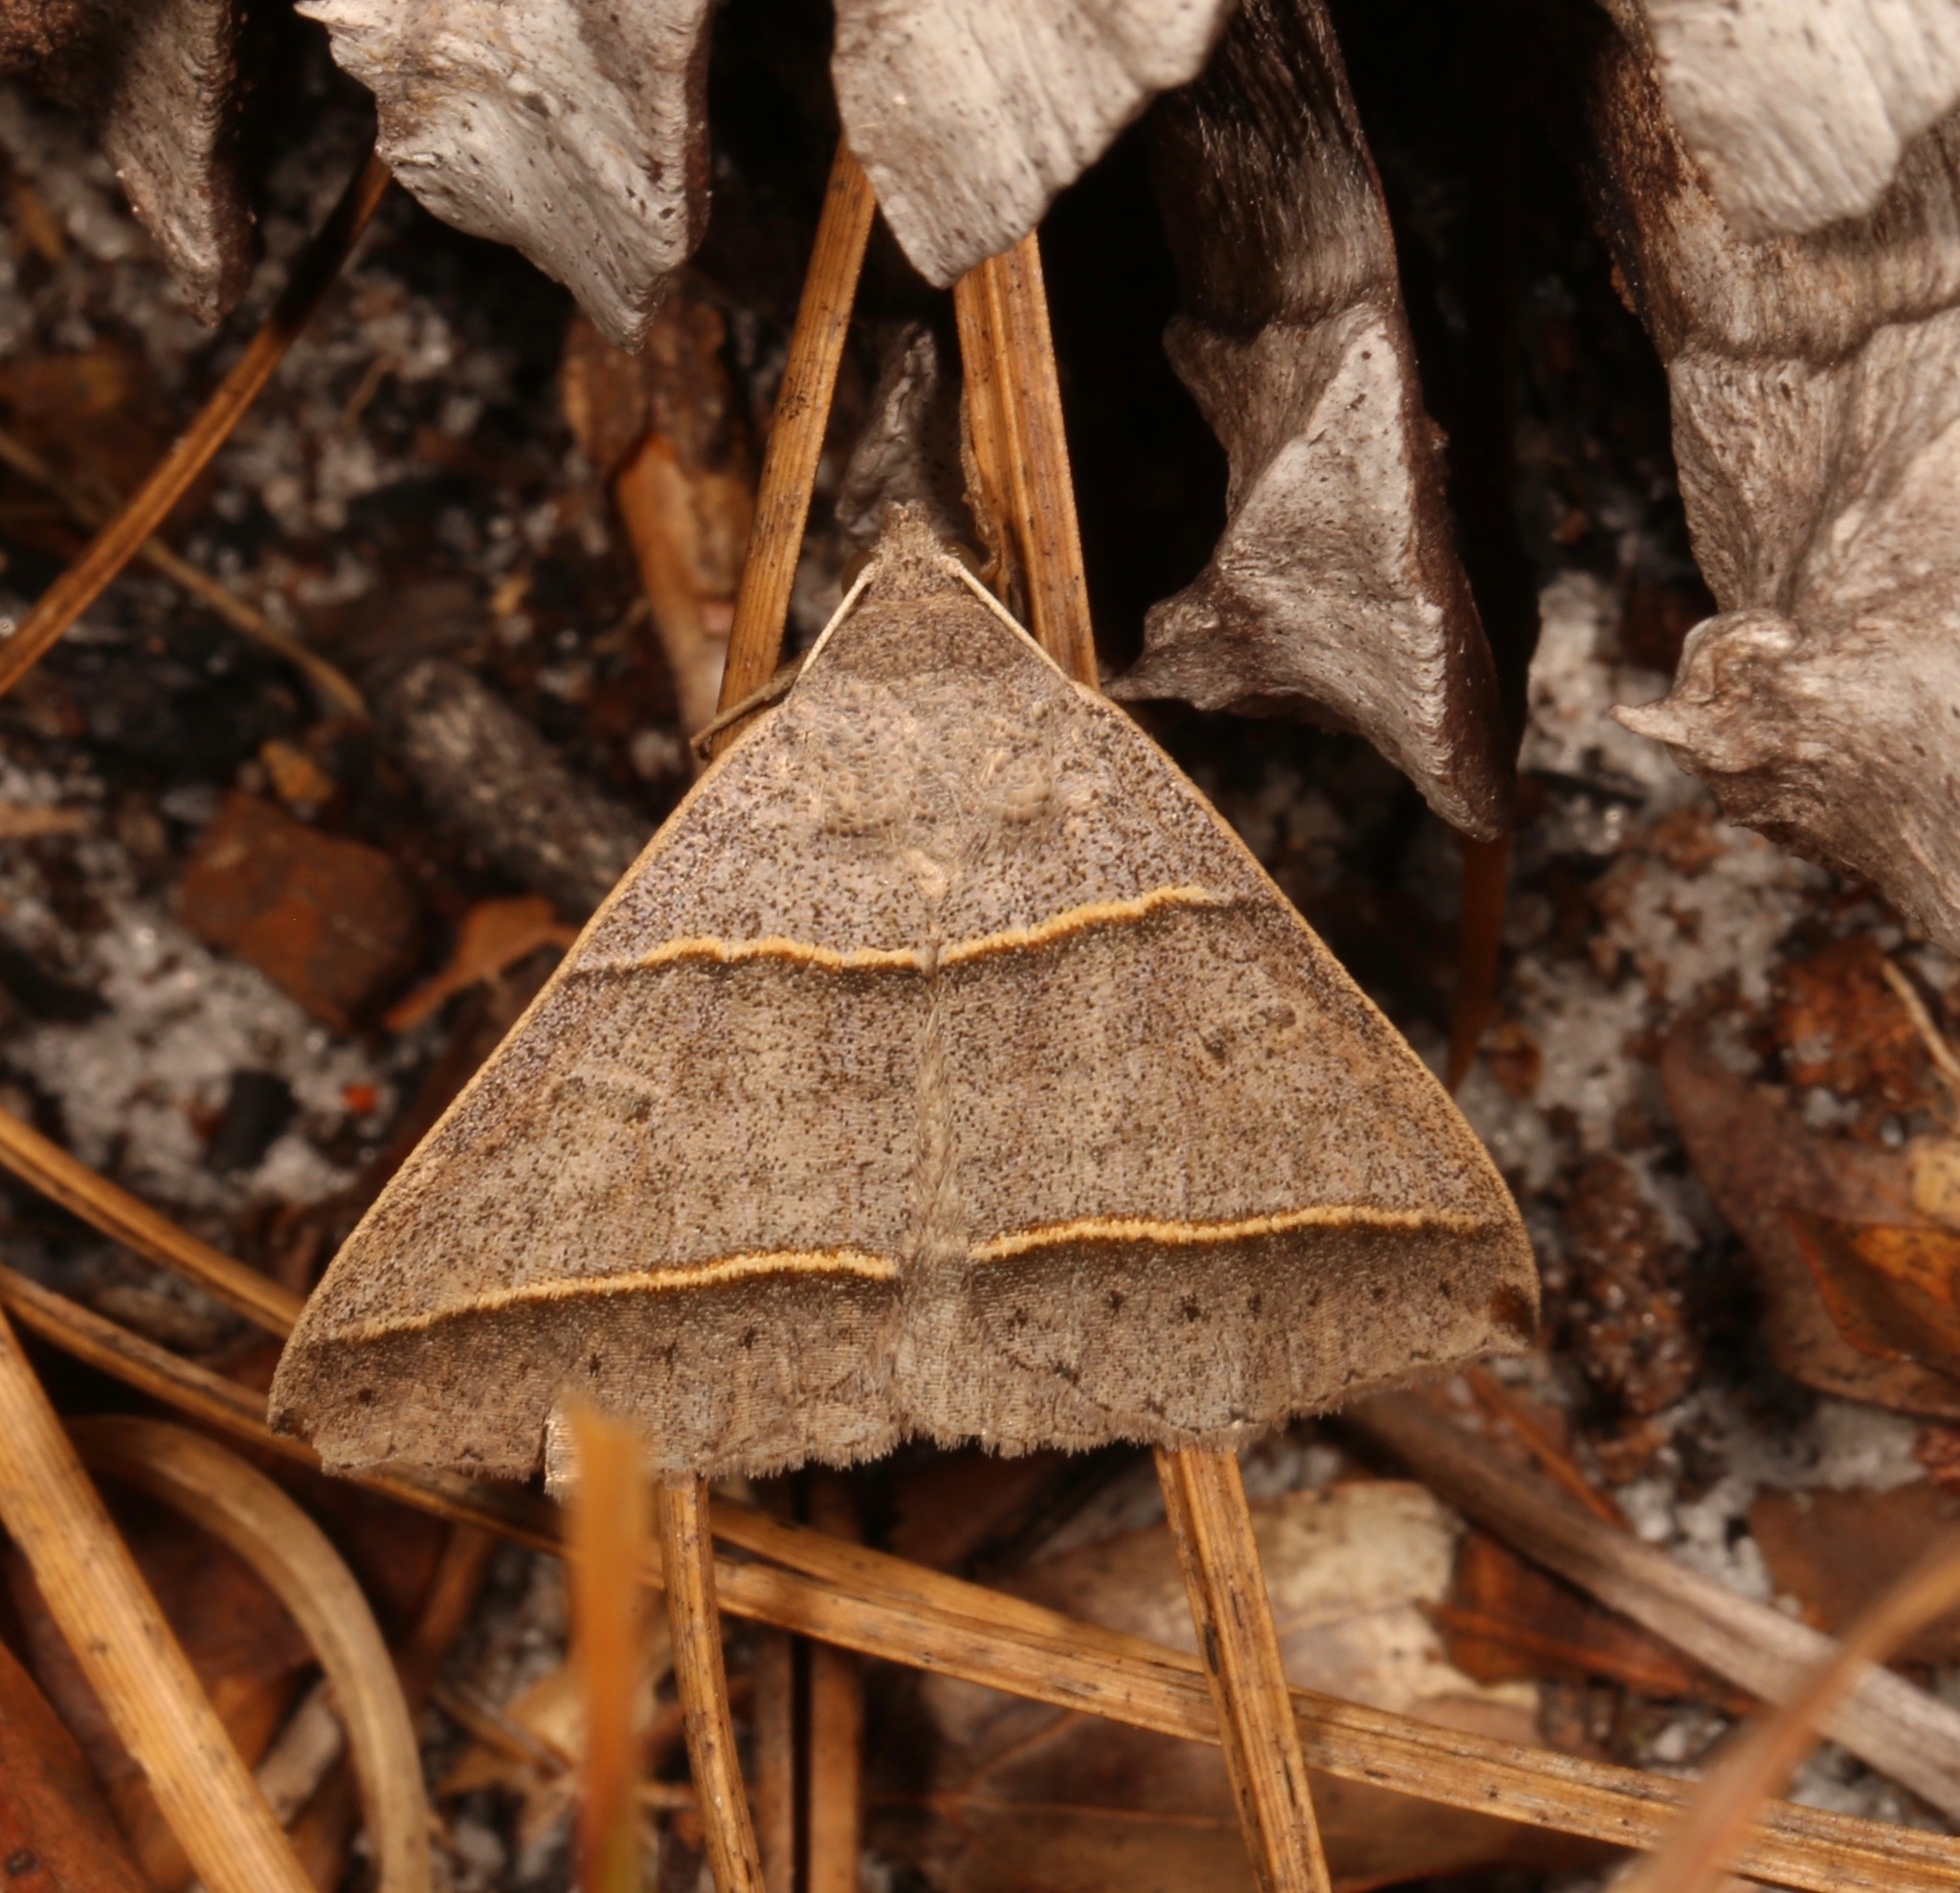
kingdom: Animalia
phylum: Arthropoda
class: Insecta
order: Lepidoptera
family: Erebidae
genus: Ptichodis
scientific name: Ptichodis vinculum
